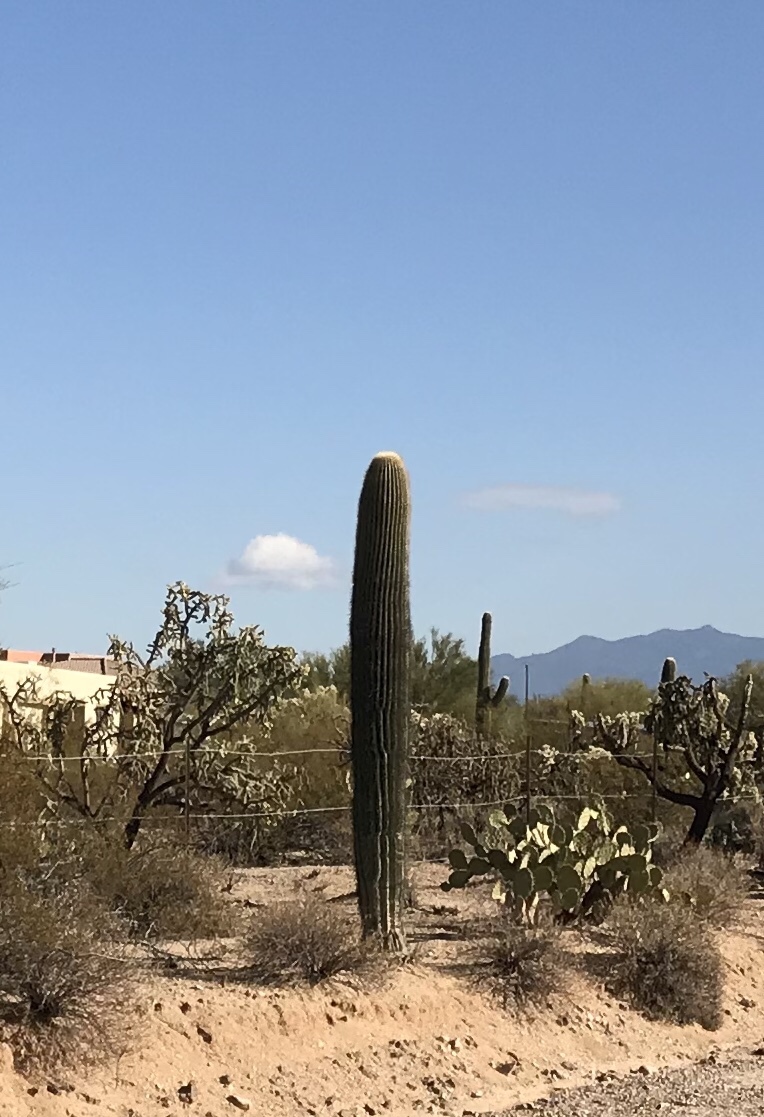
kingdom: Plantae
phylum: Tracheophyta
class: Magnoliopsida
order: Caryophyllales
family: Cactaceae
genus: Carnegiea
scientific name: Carnegiea gigantea
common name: Saguaro
